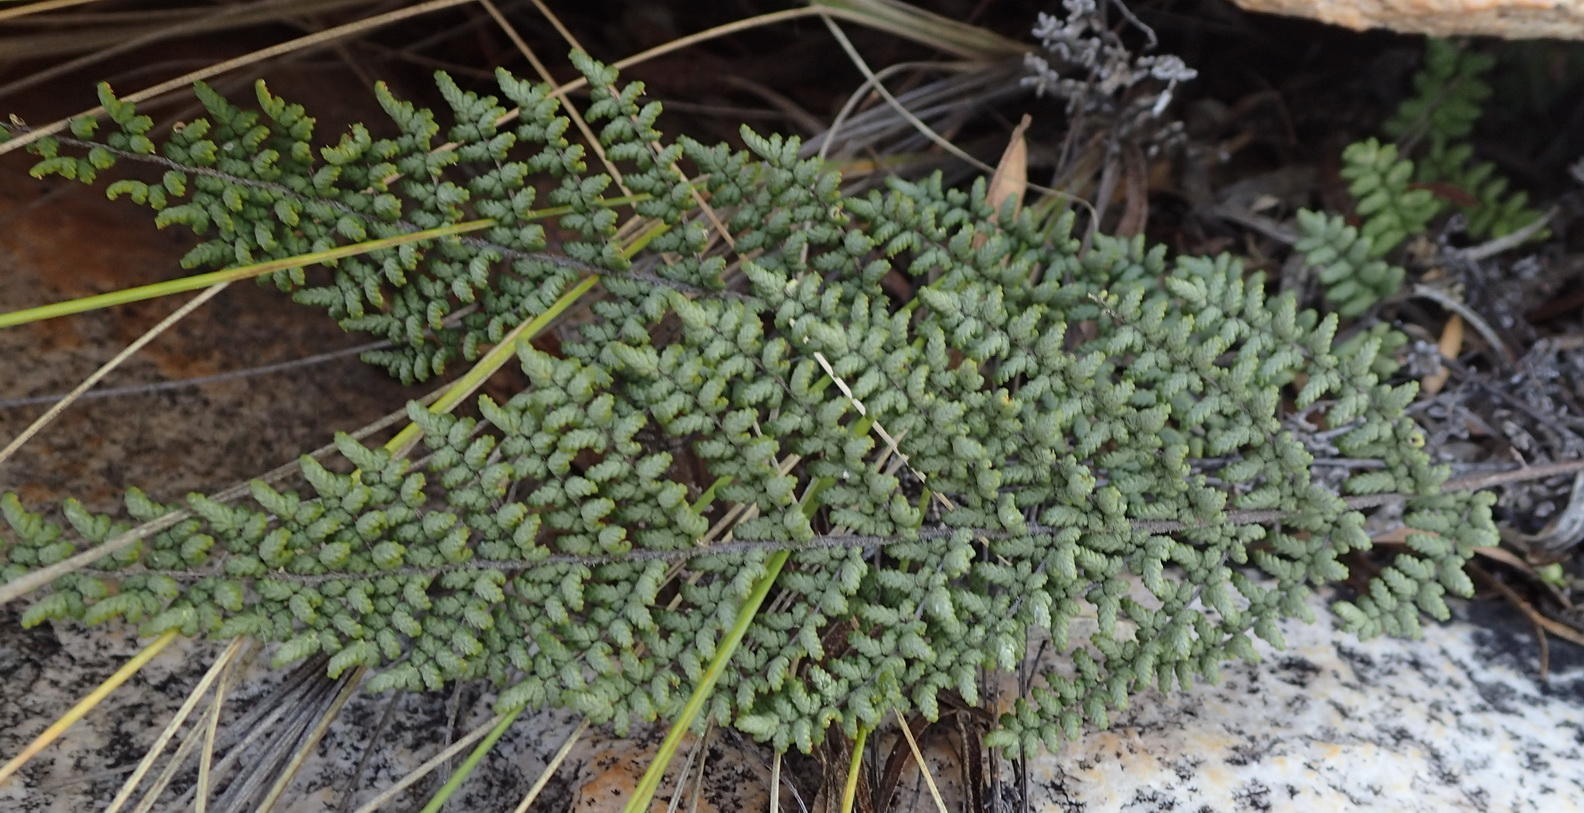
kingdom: Plantae
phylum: Tracheophyta
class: Polypodiopsida
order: Polypodiales
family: Pteridaceae
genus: Cheilanthes
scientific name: Cheilanthes parviloba
